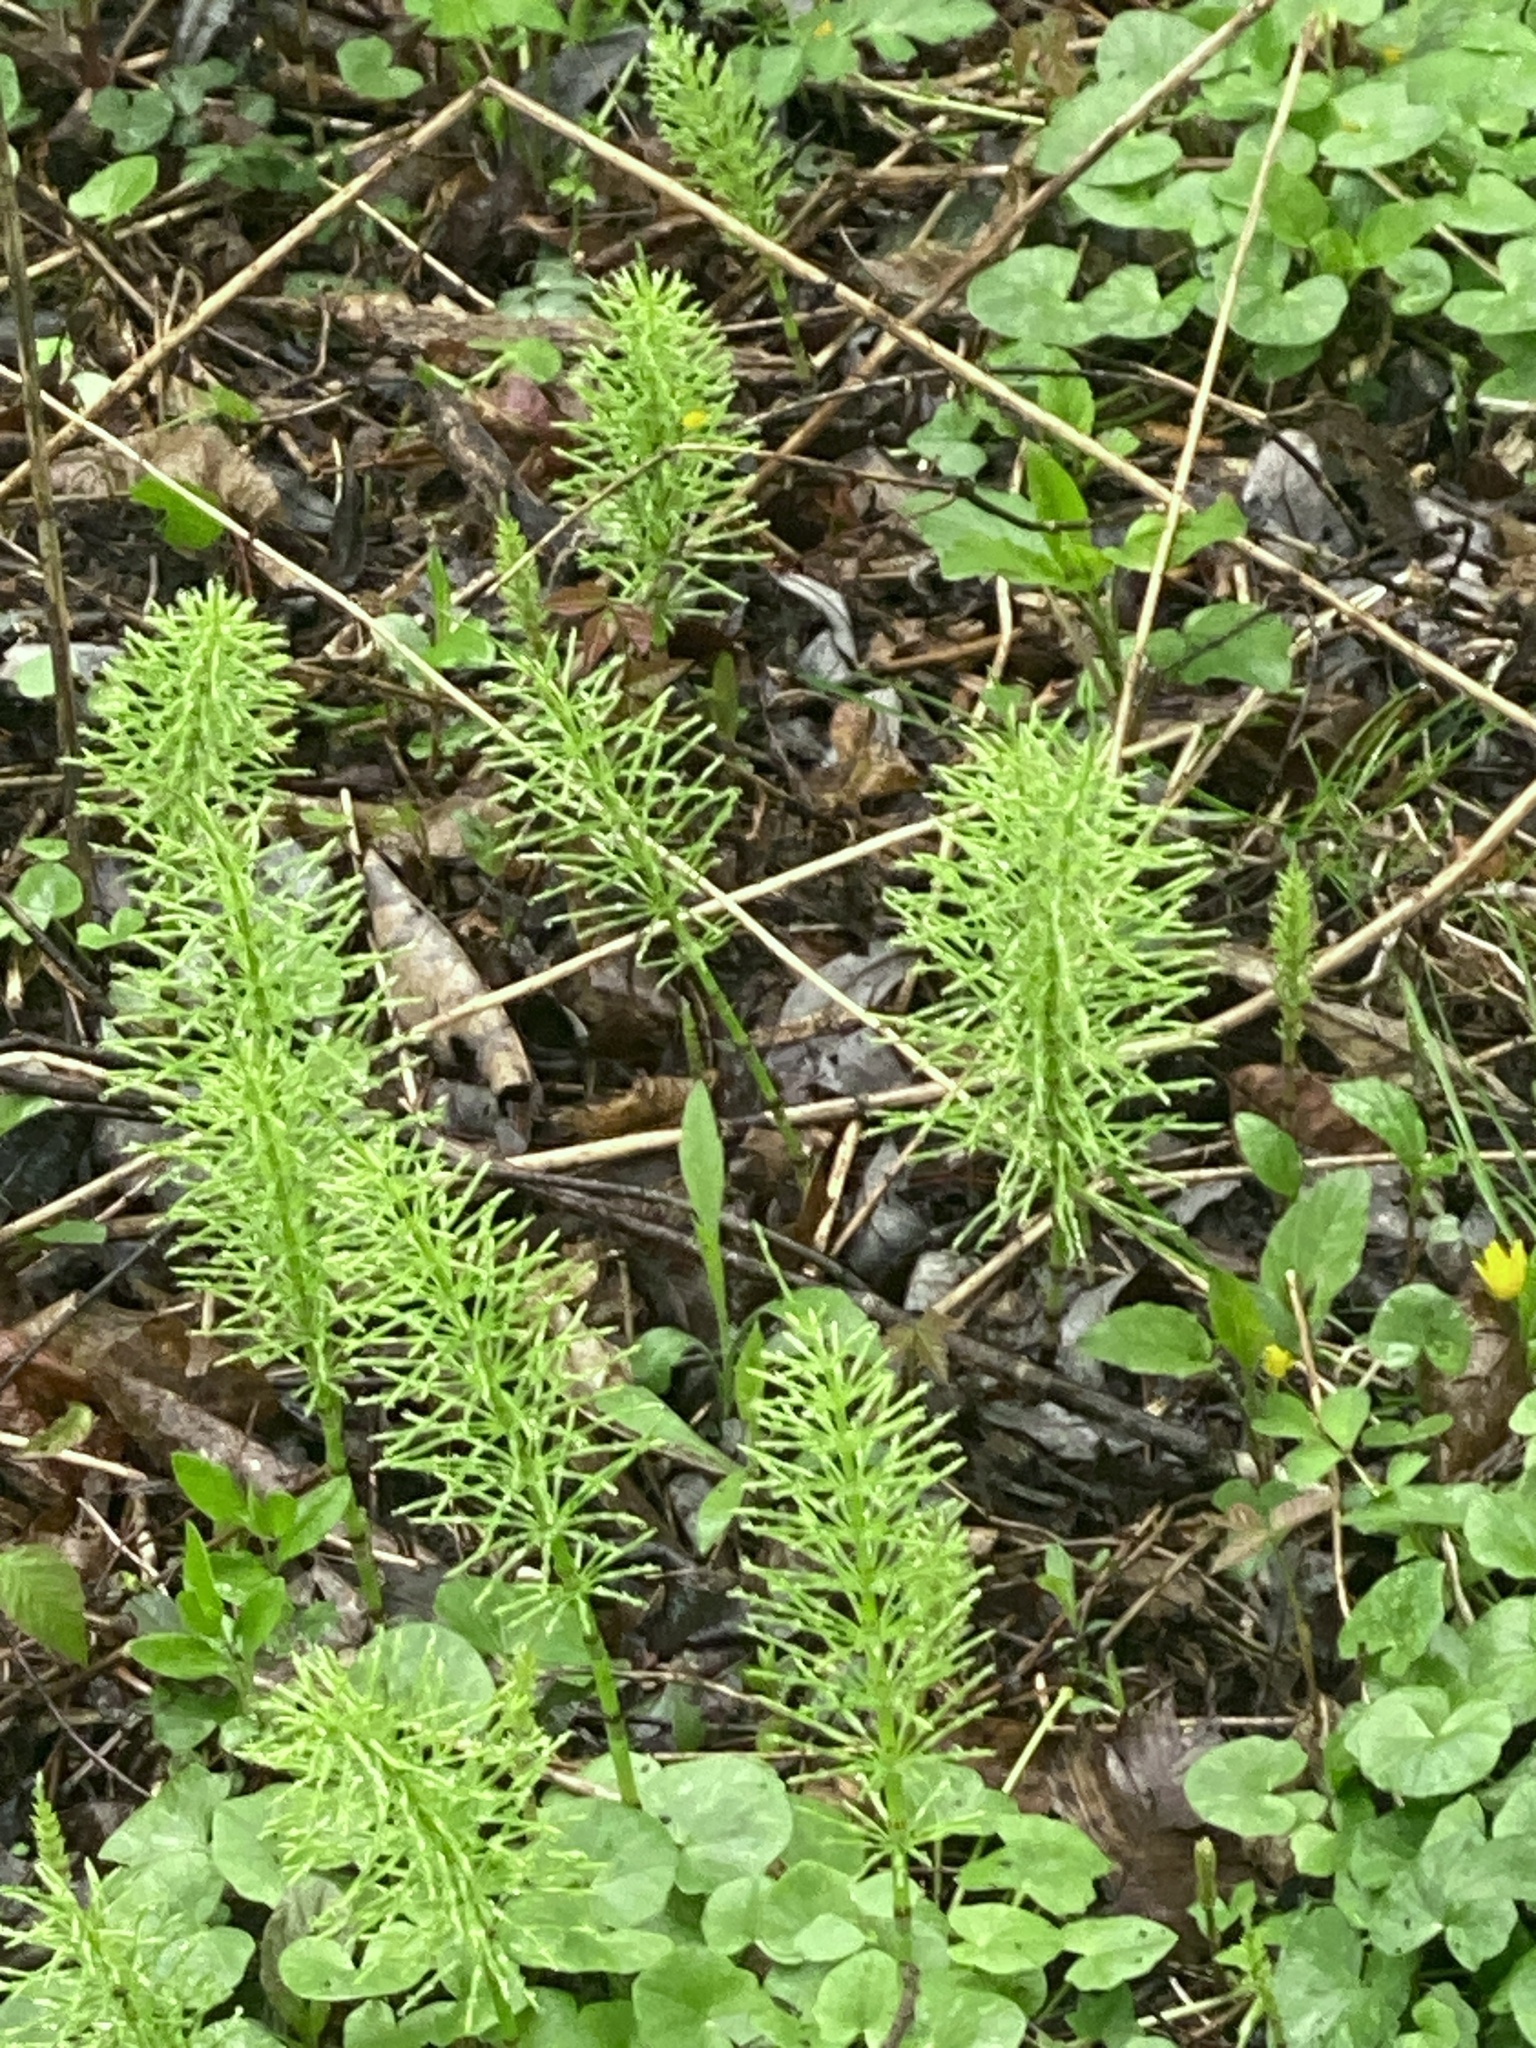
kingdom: Plantae
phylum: Tracheophyta
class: Polypodiopsida
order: Equisetales
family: Equisetaceae
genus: Equisetum
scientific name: Equisetum arvense
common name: Field horsetail
